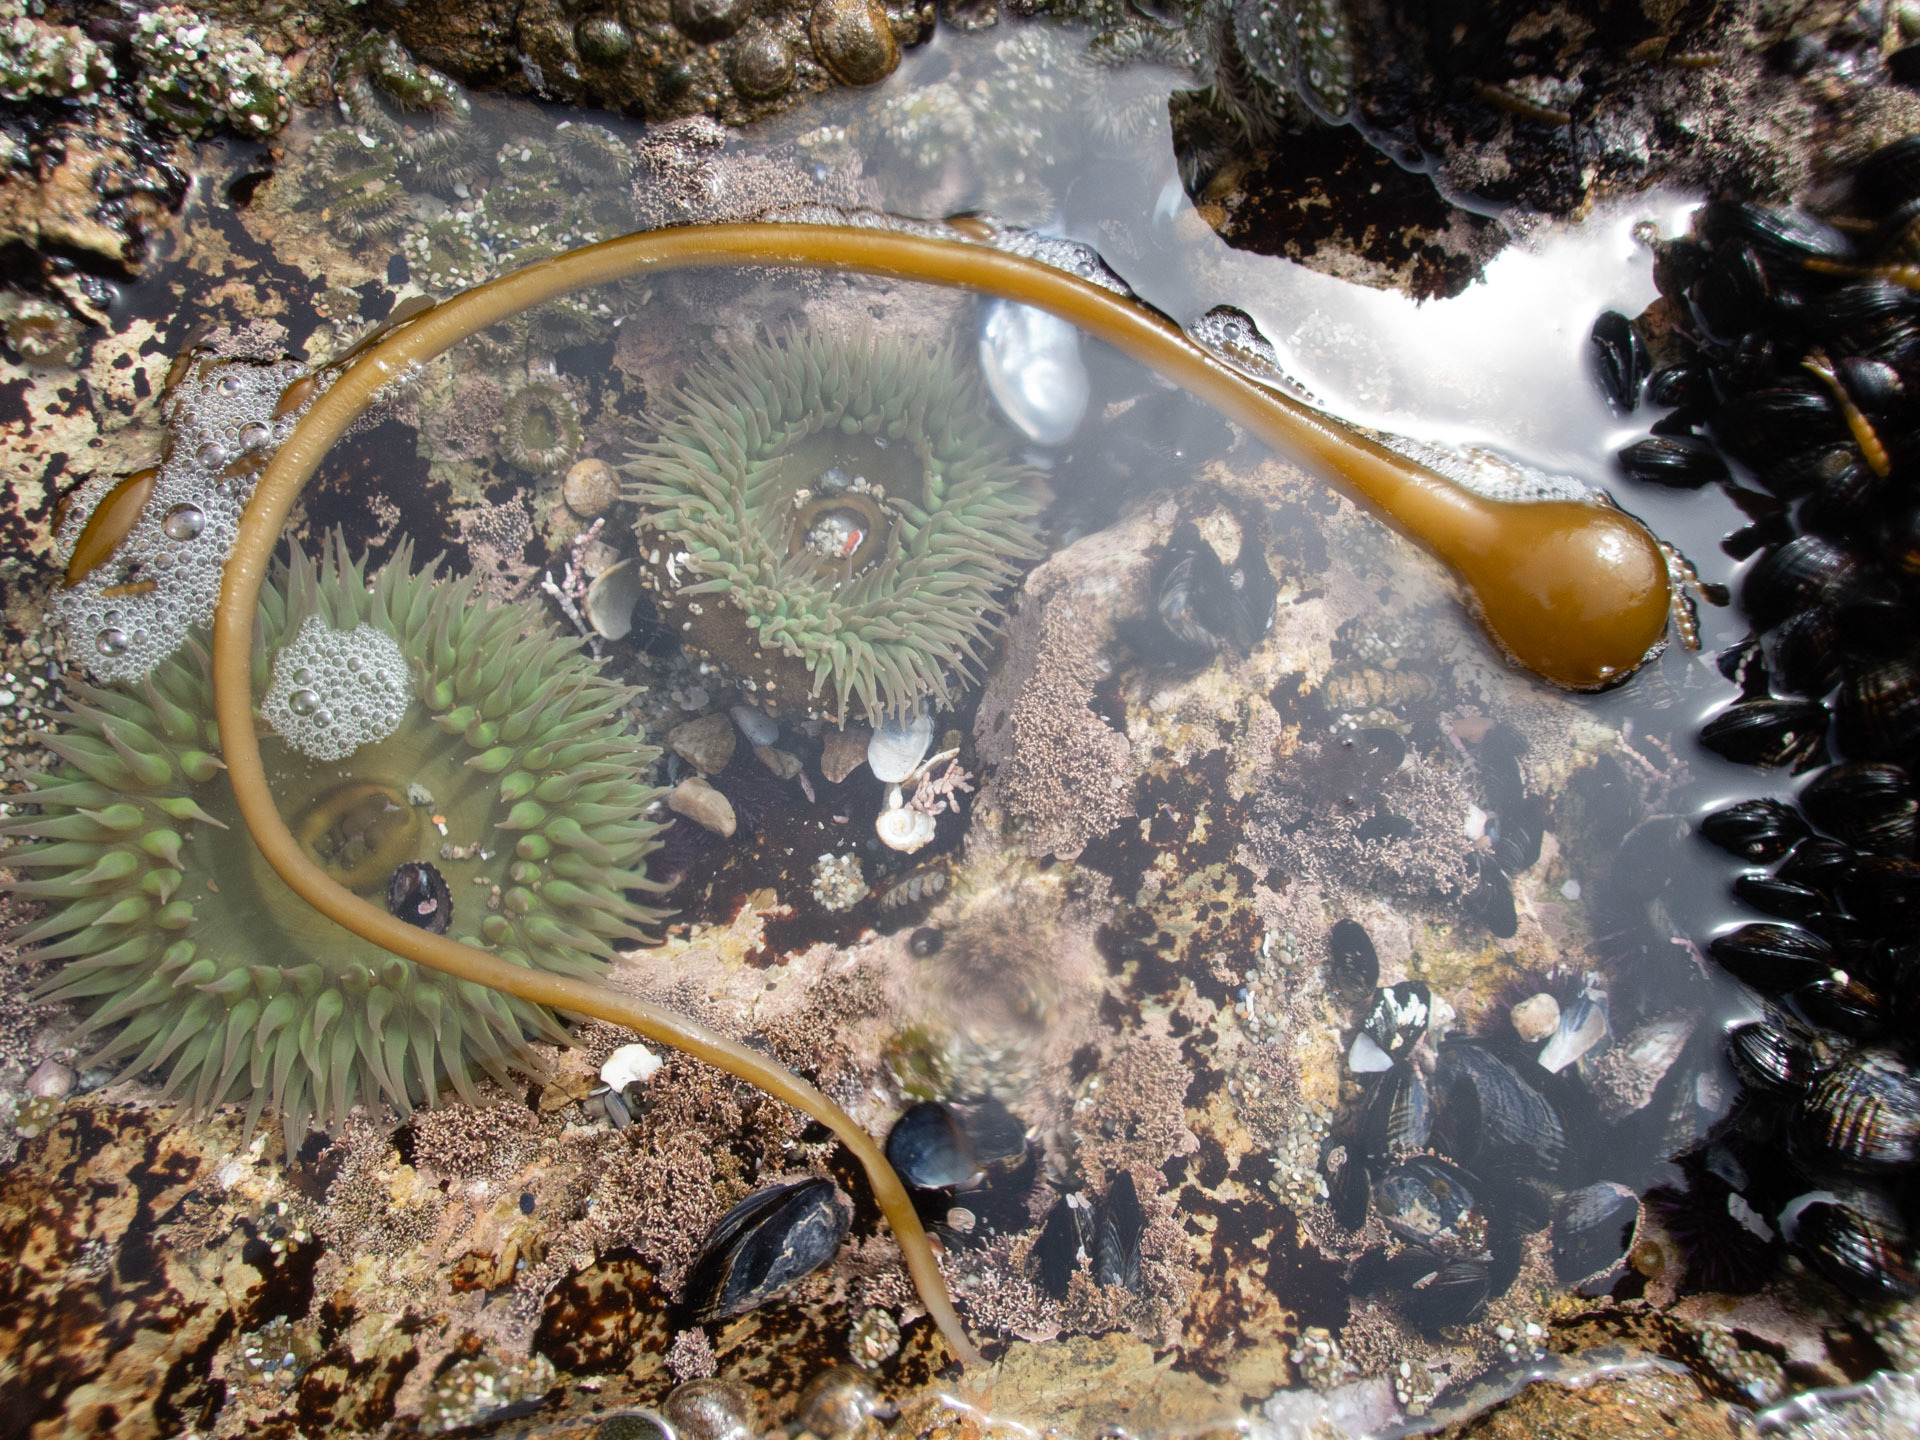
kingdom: Chromista
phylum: Ochrophyta
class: Phaeophyceae
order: Laminariales
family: Laminariaceae
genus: Nereocystis
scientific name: Nereocystis luetkeana
